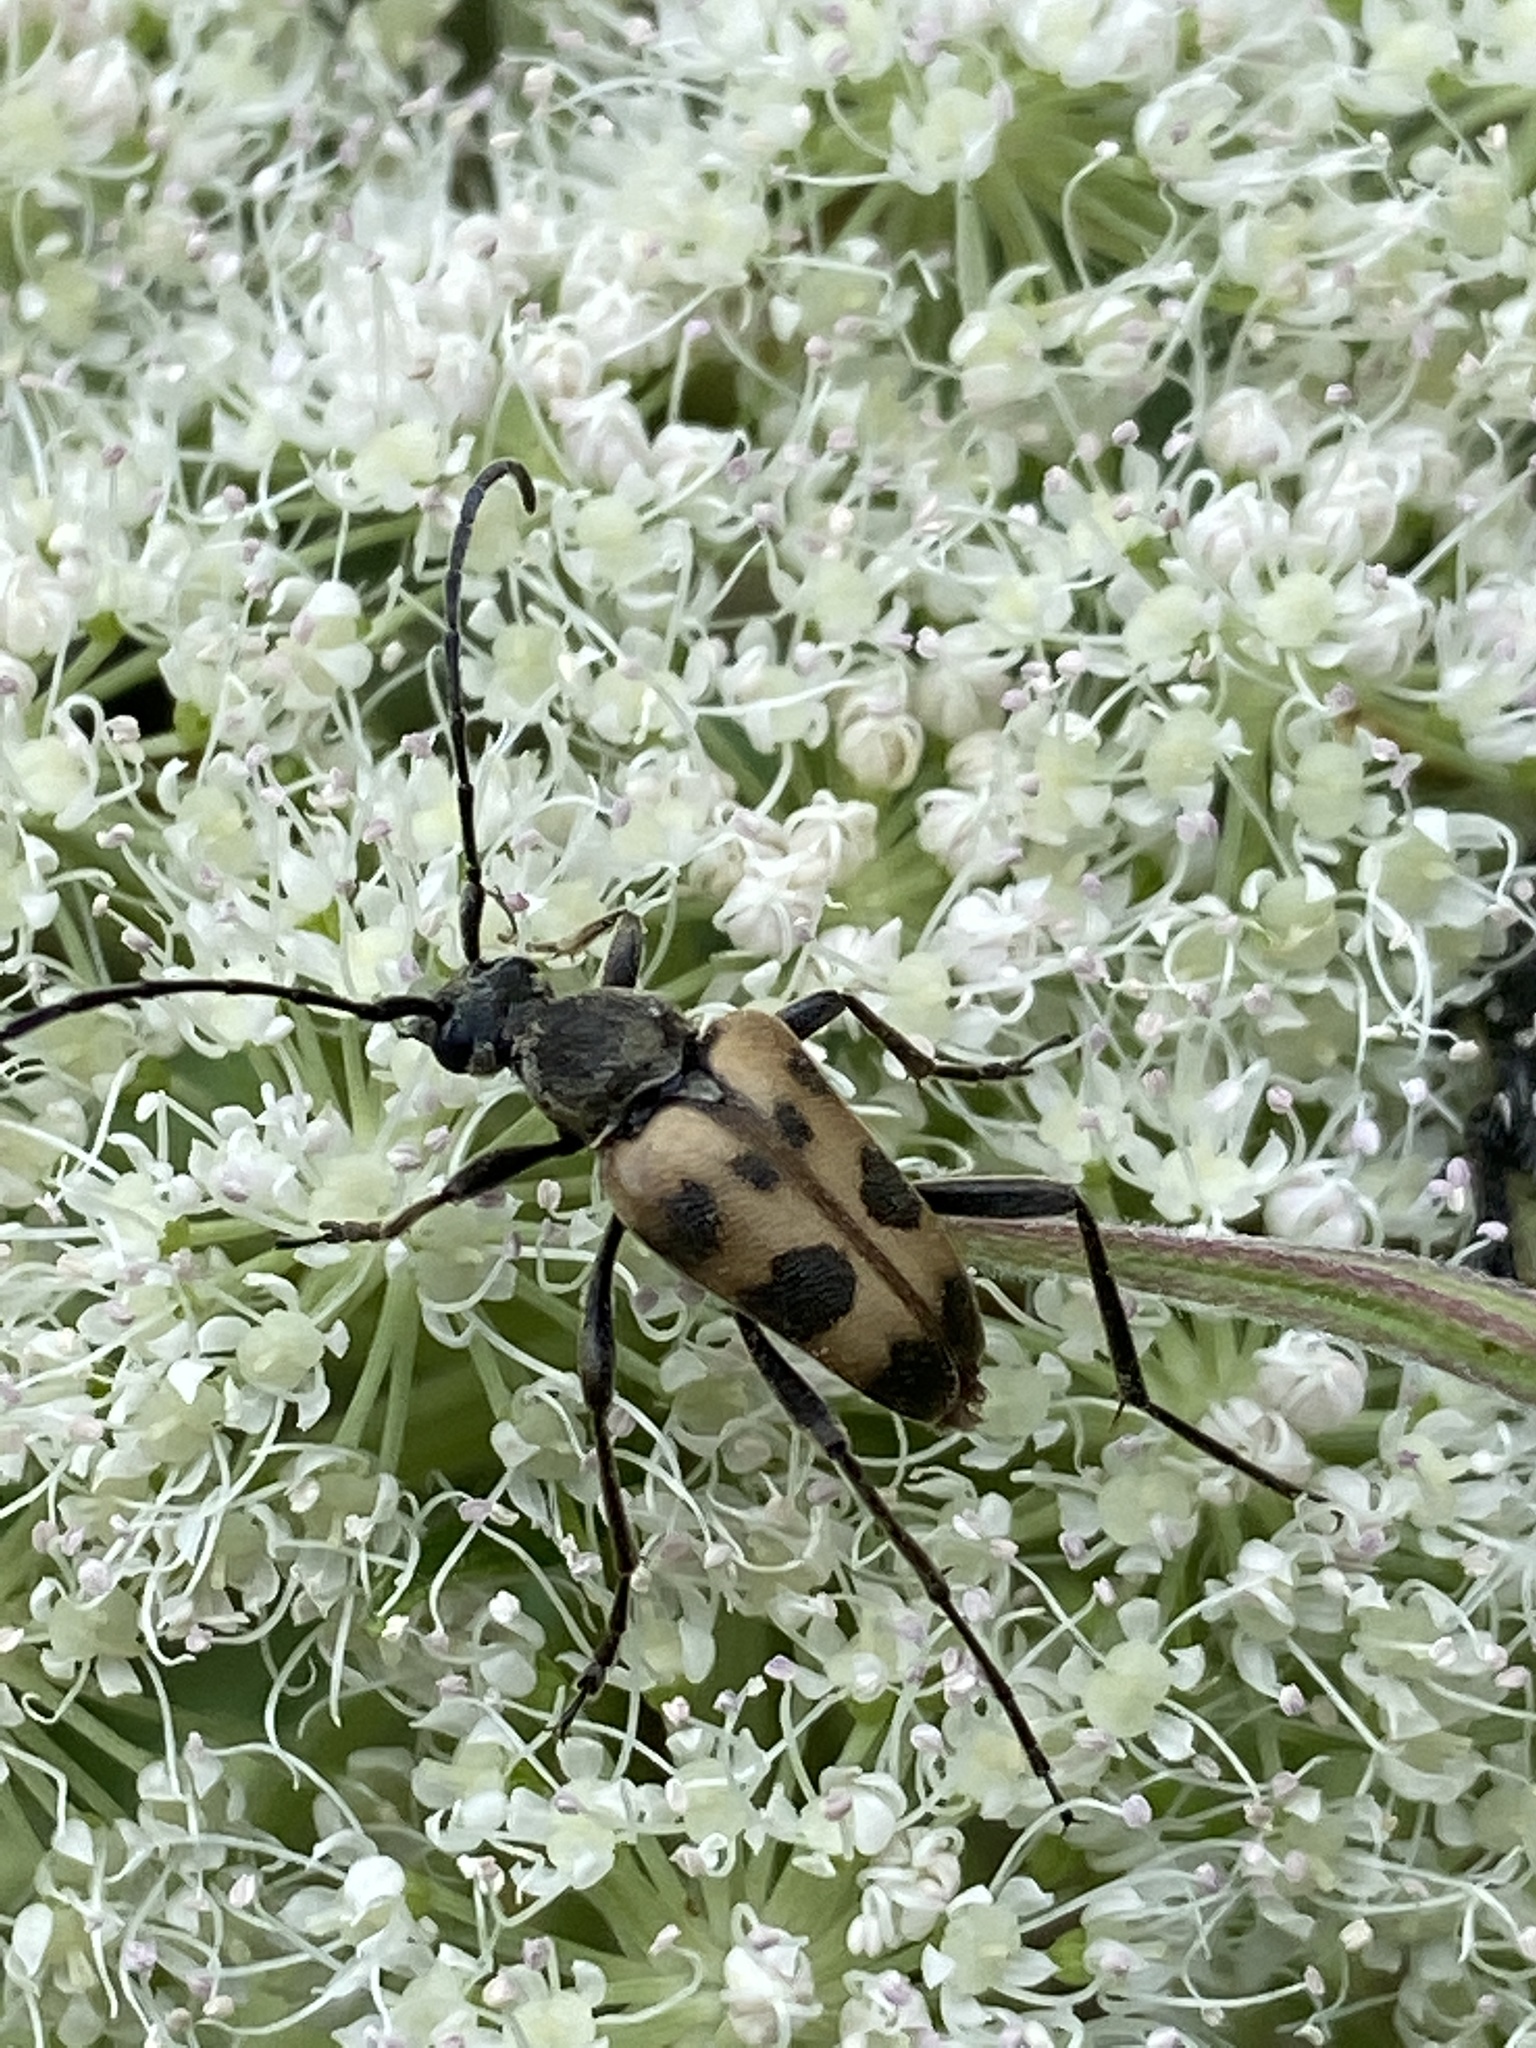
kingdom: Animalia
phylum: Arthropoda
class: Insecta
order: Coleoptera
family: Cerambycidae
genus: Pachytodes
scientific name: Pachytodes cerambyciformis
